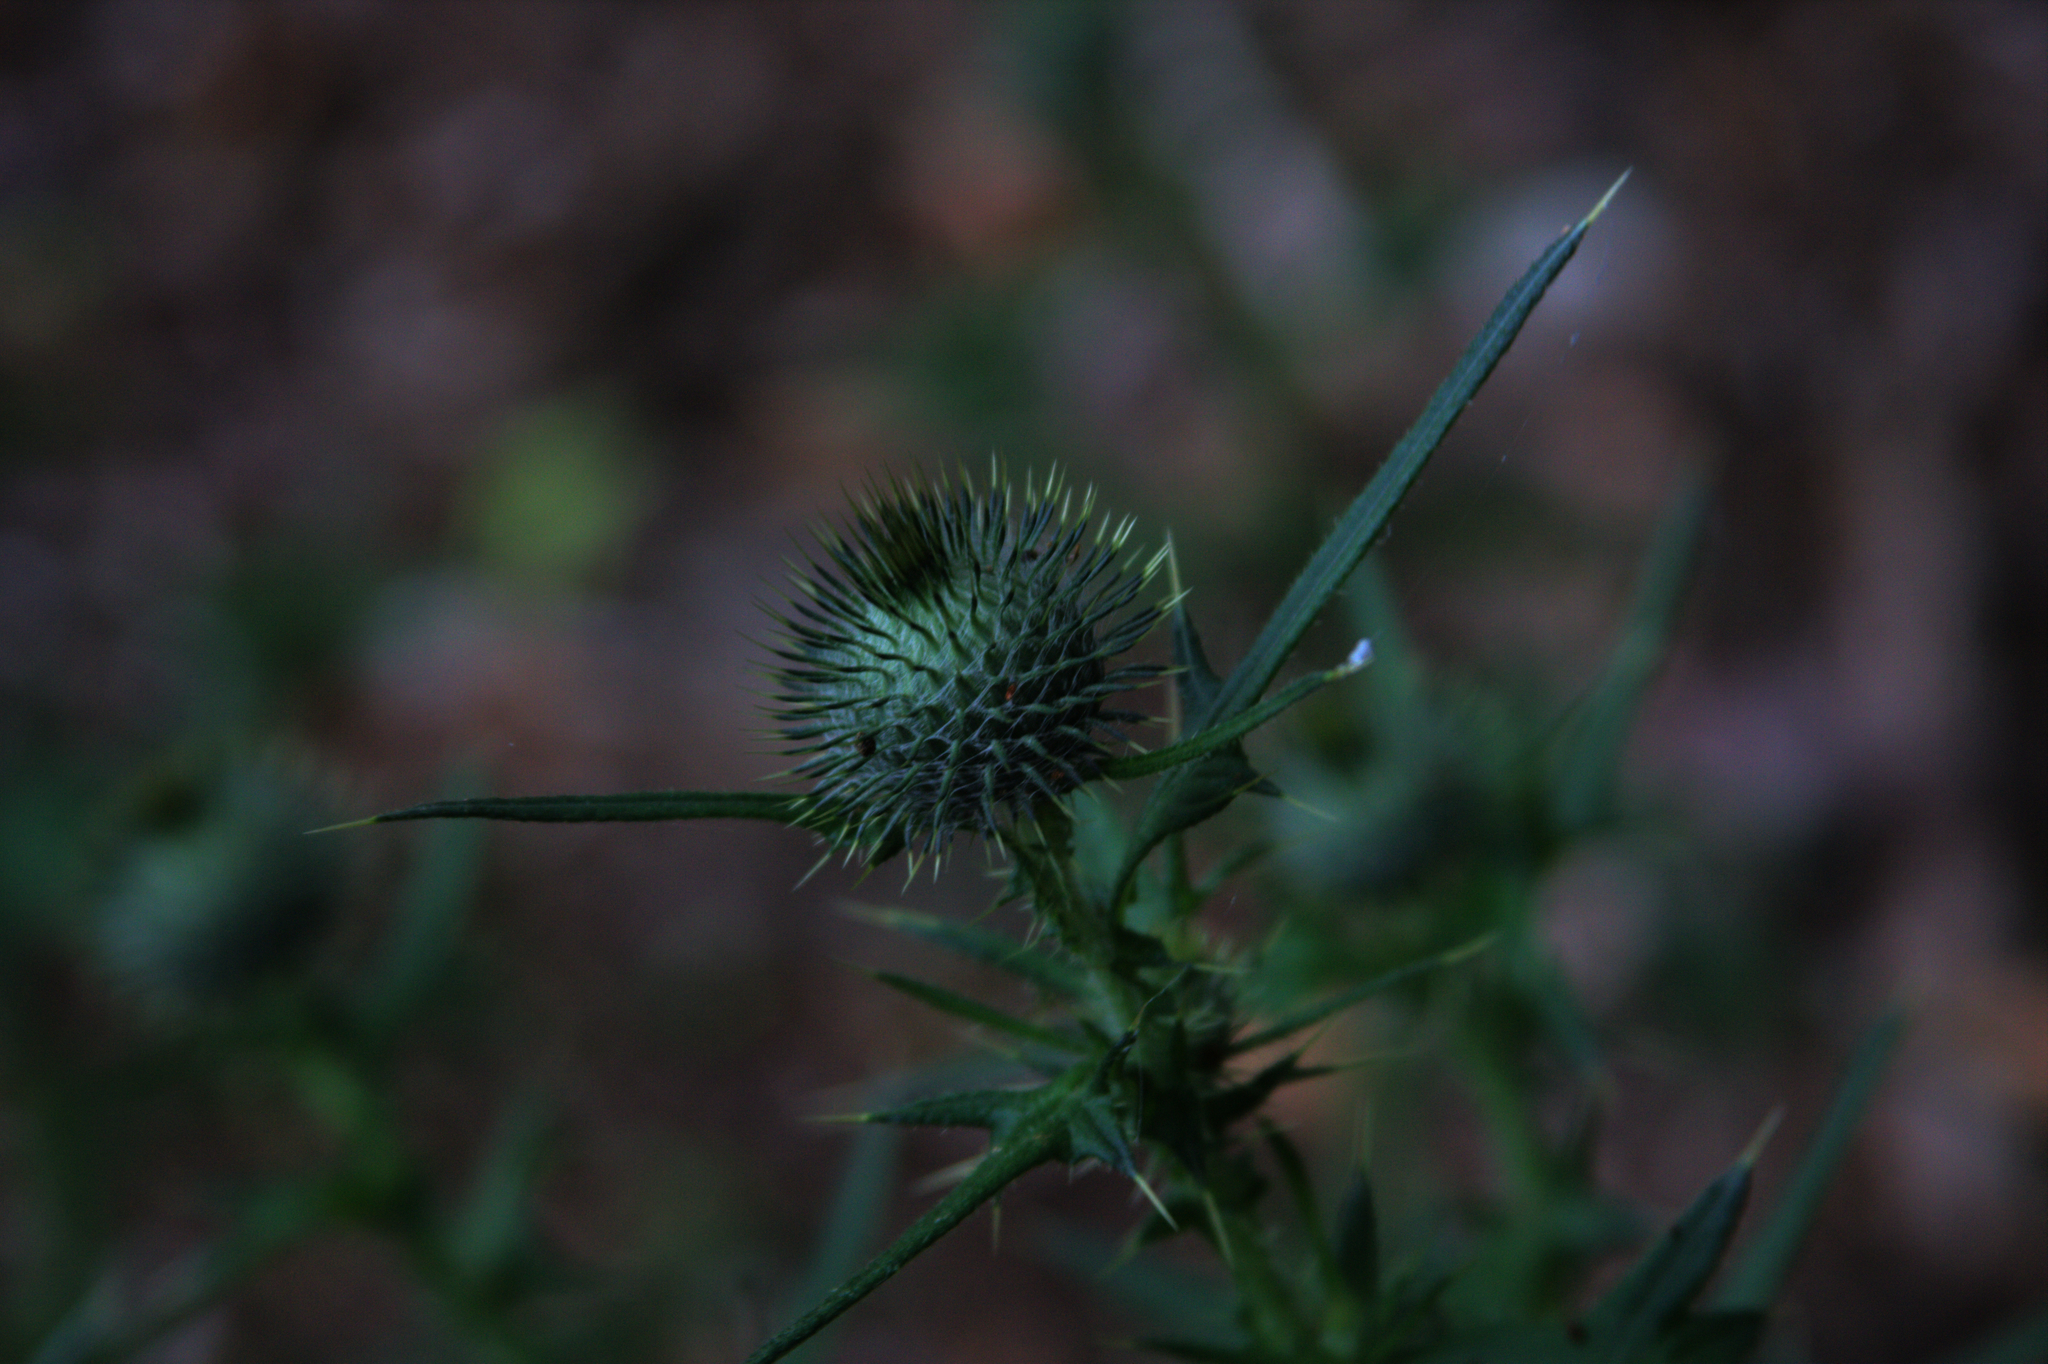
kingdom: Plantae
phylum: Tracheophyta
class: Magnoliopsida
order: Asterales
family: Asteraceae
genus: Cirsium
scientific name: Cirsium vulgare
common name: Bull thistle
